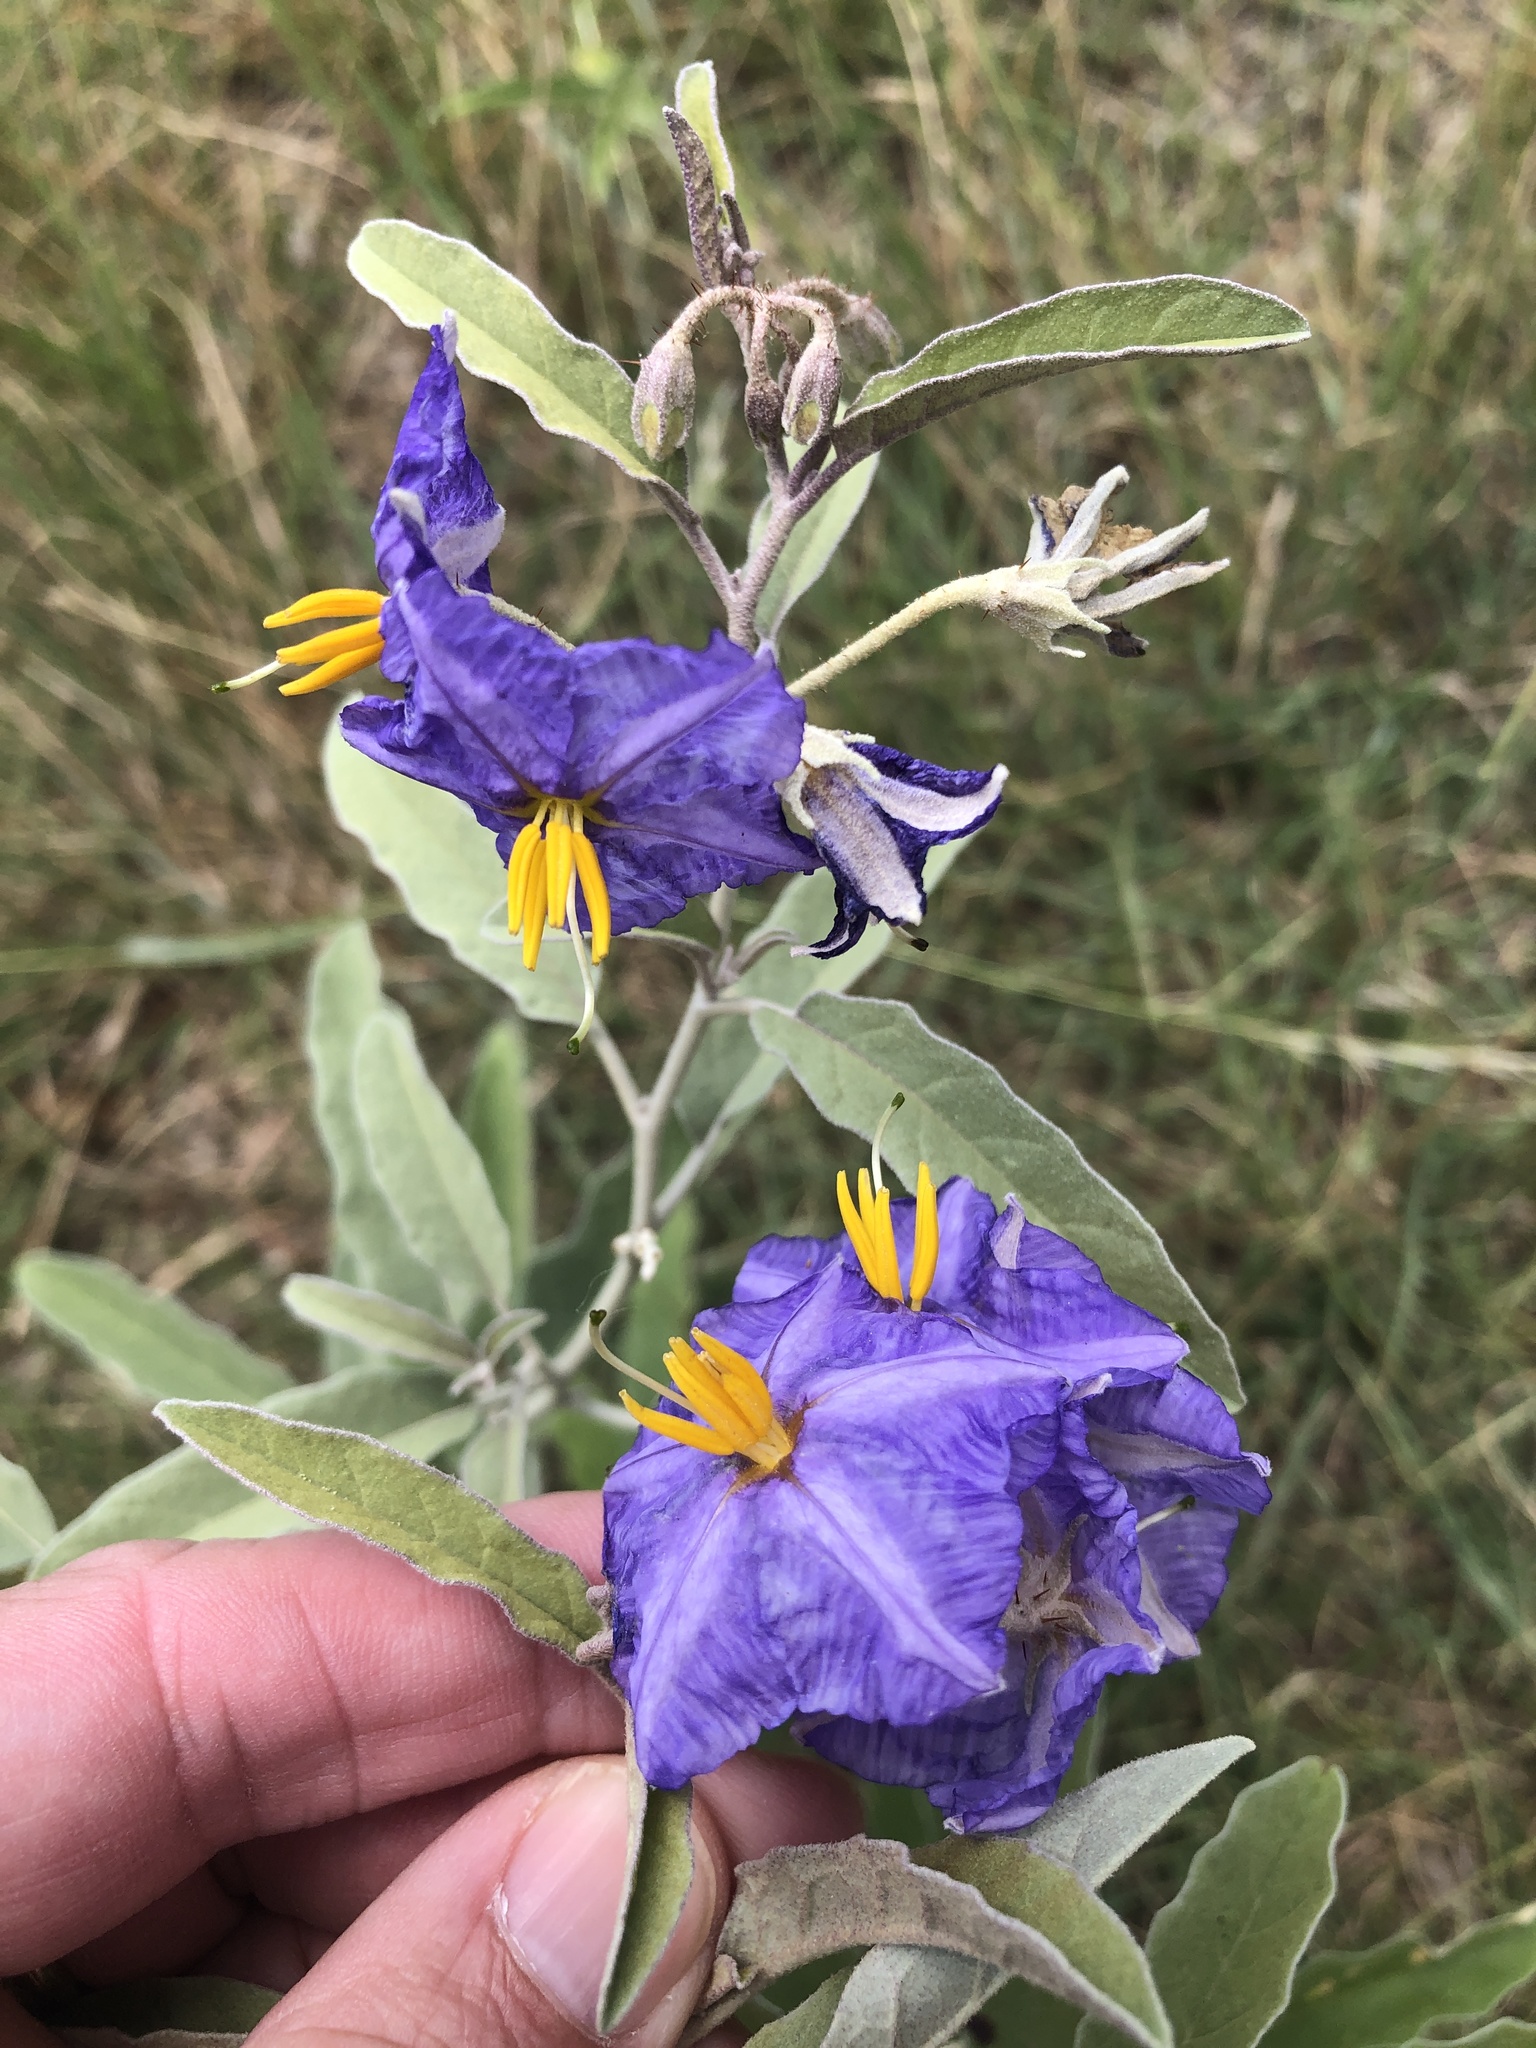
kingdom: Plantae
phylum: Tracheophyta
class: Magnoliopsida
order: Solanales
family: Solanaceae
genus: Solanum
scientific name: Solanum elaeagnifolium
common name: Silverleaf nightshade
